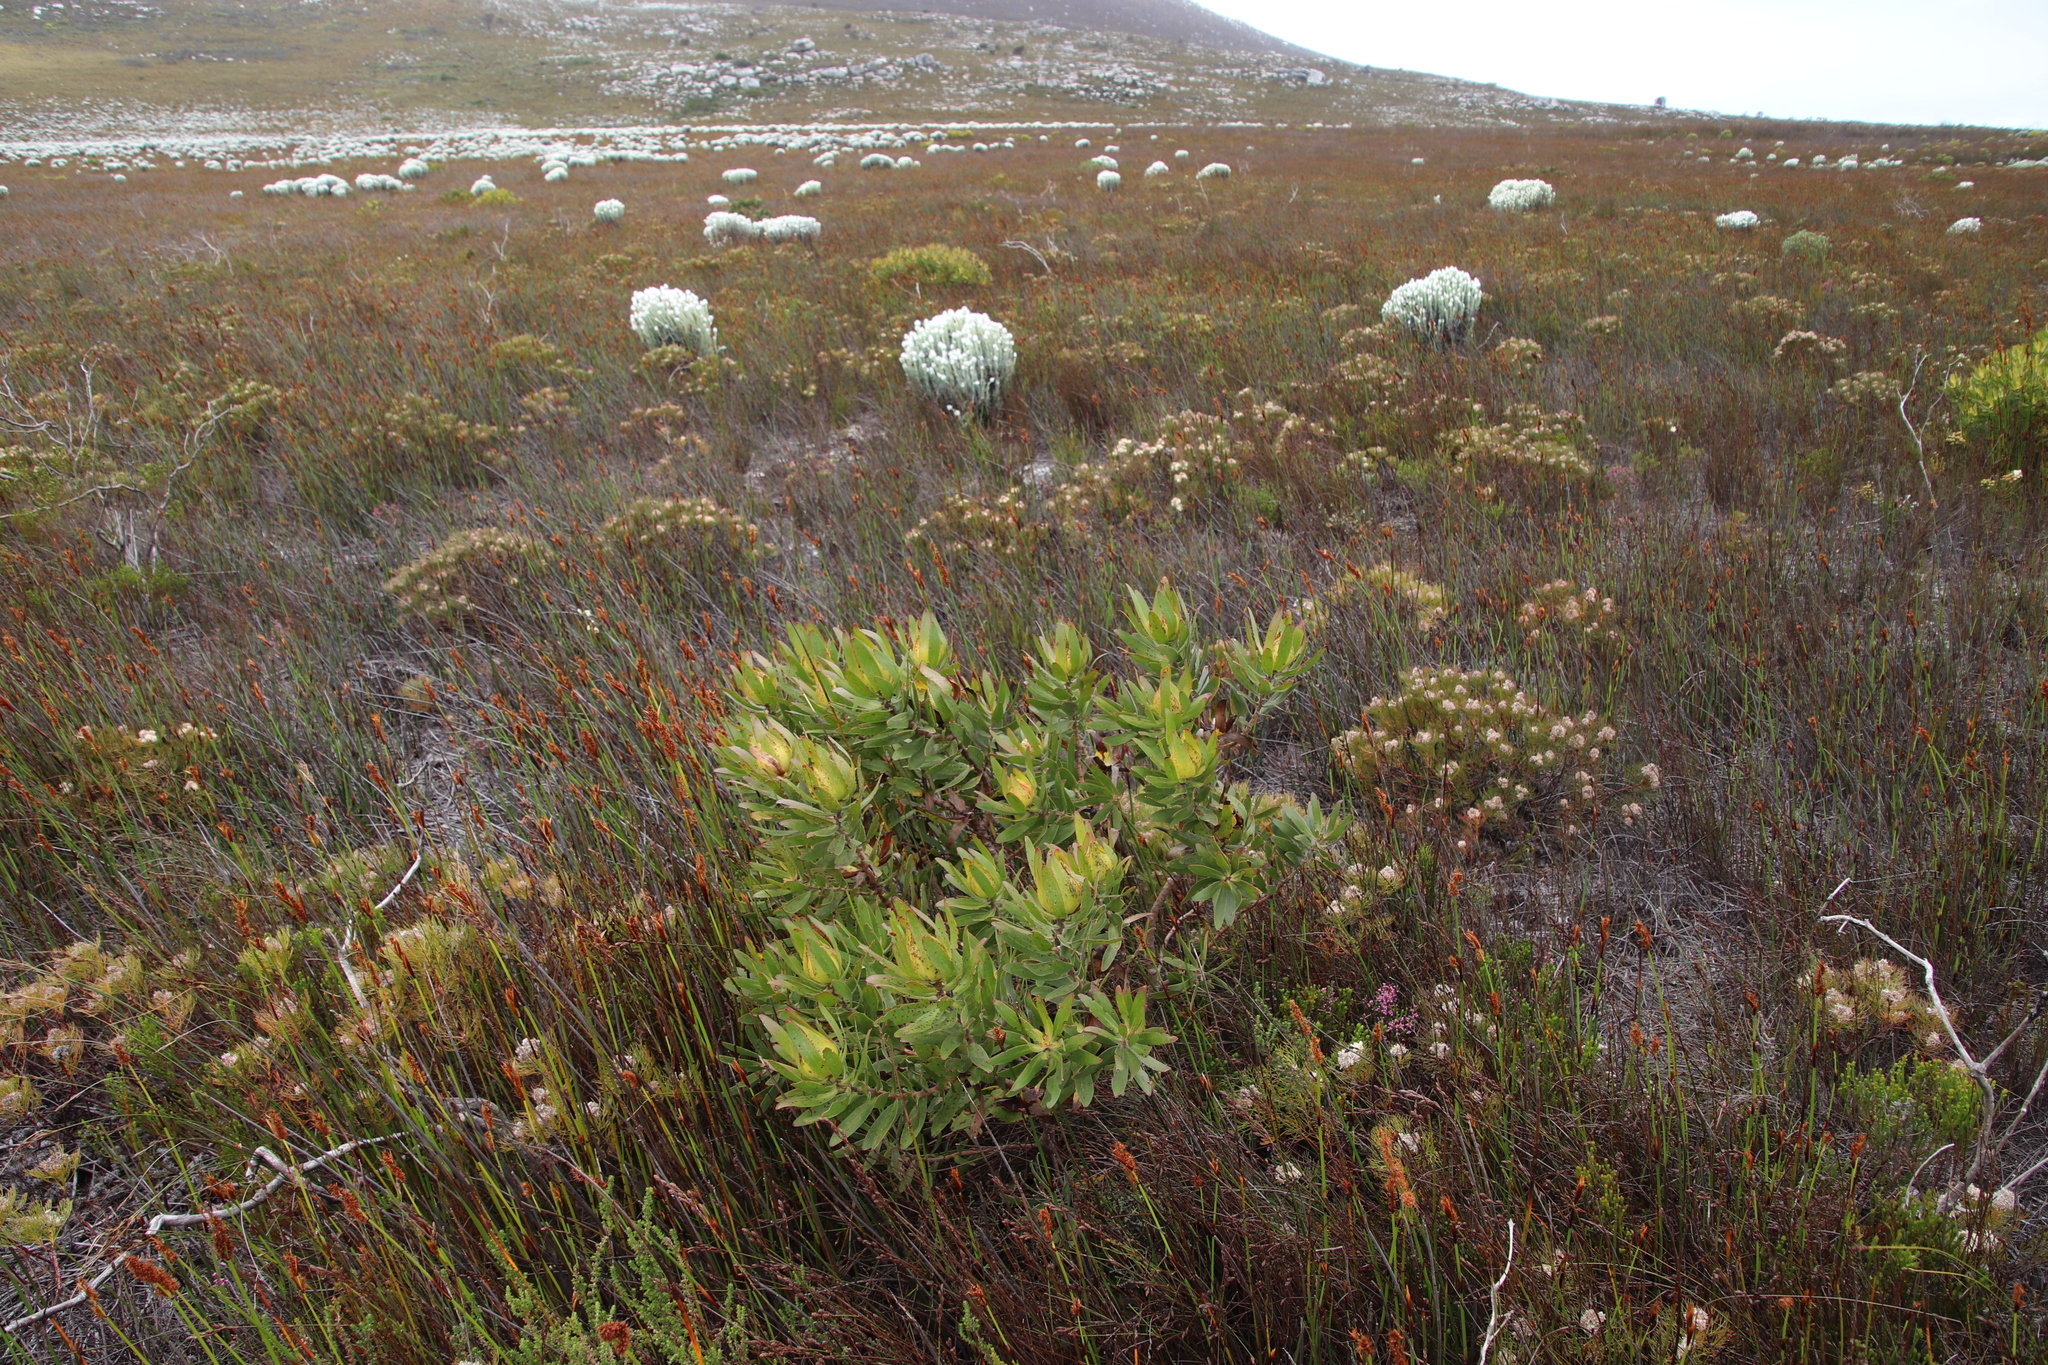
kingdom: Plantae
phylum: Tracheophyta
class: Magnoliopsida
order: Proteales
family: Proteaceae
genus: Leucadendron
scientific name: Leucadendron laureolum
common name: Golden sunshinebush
